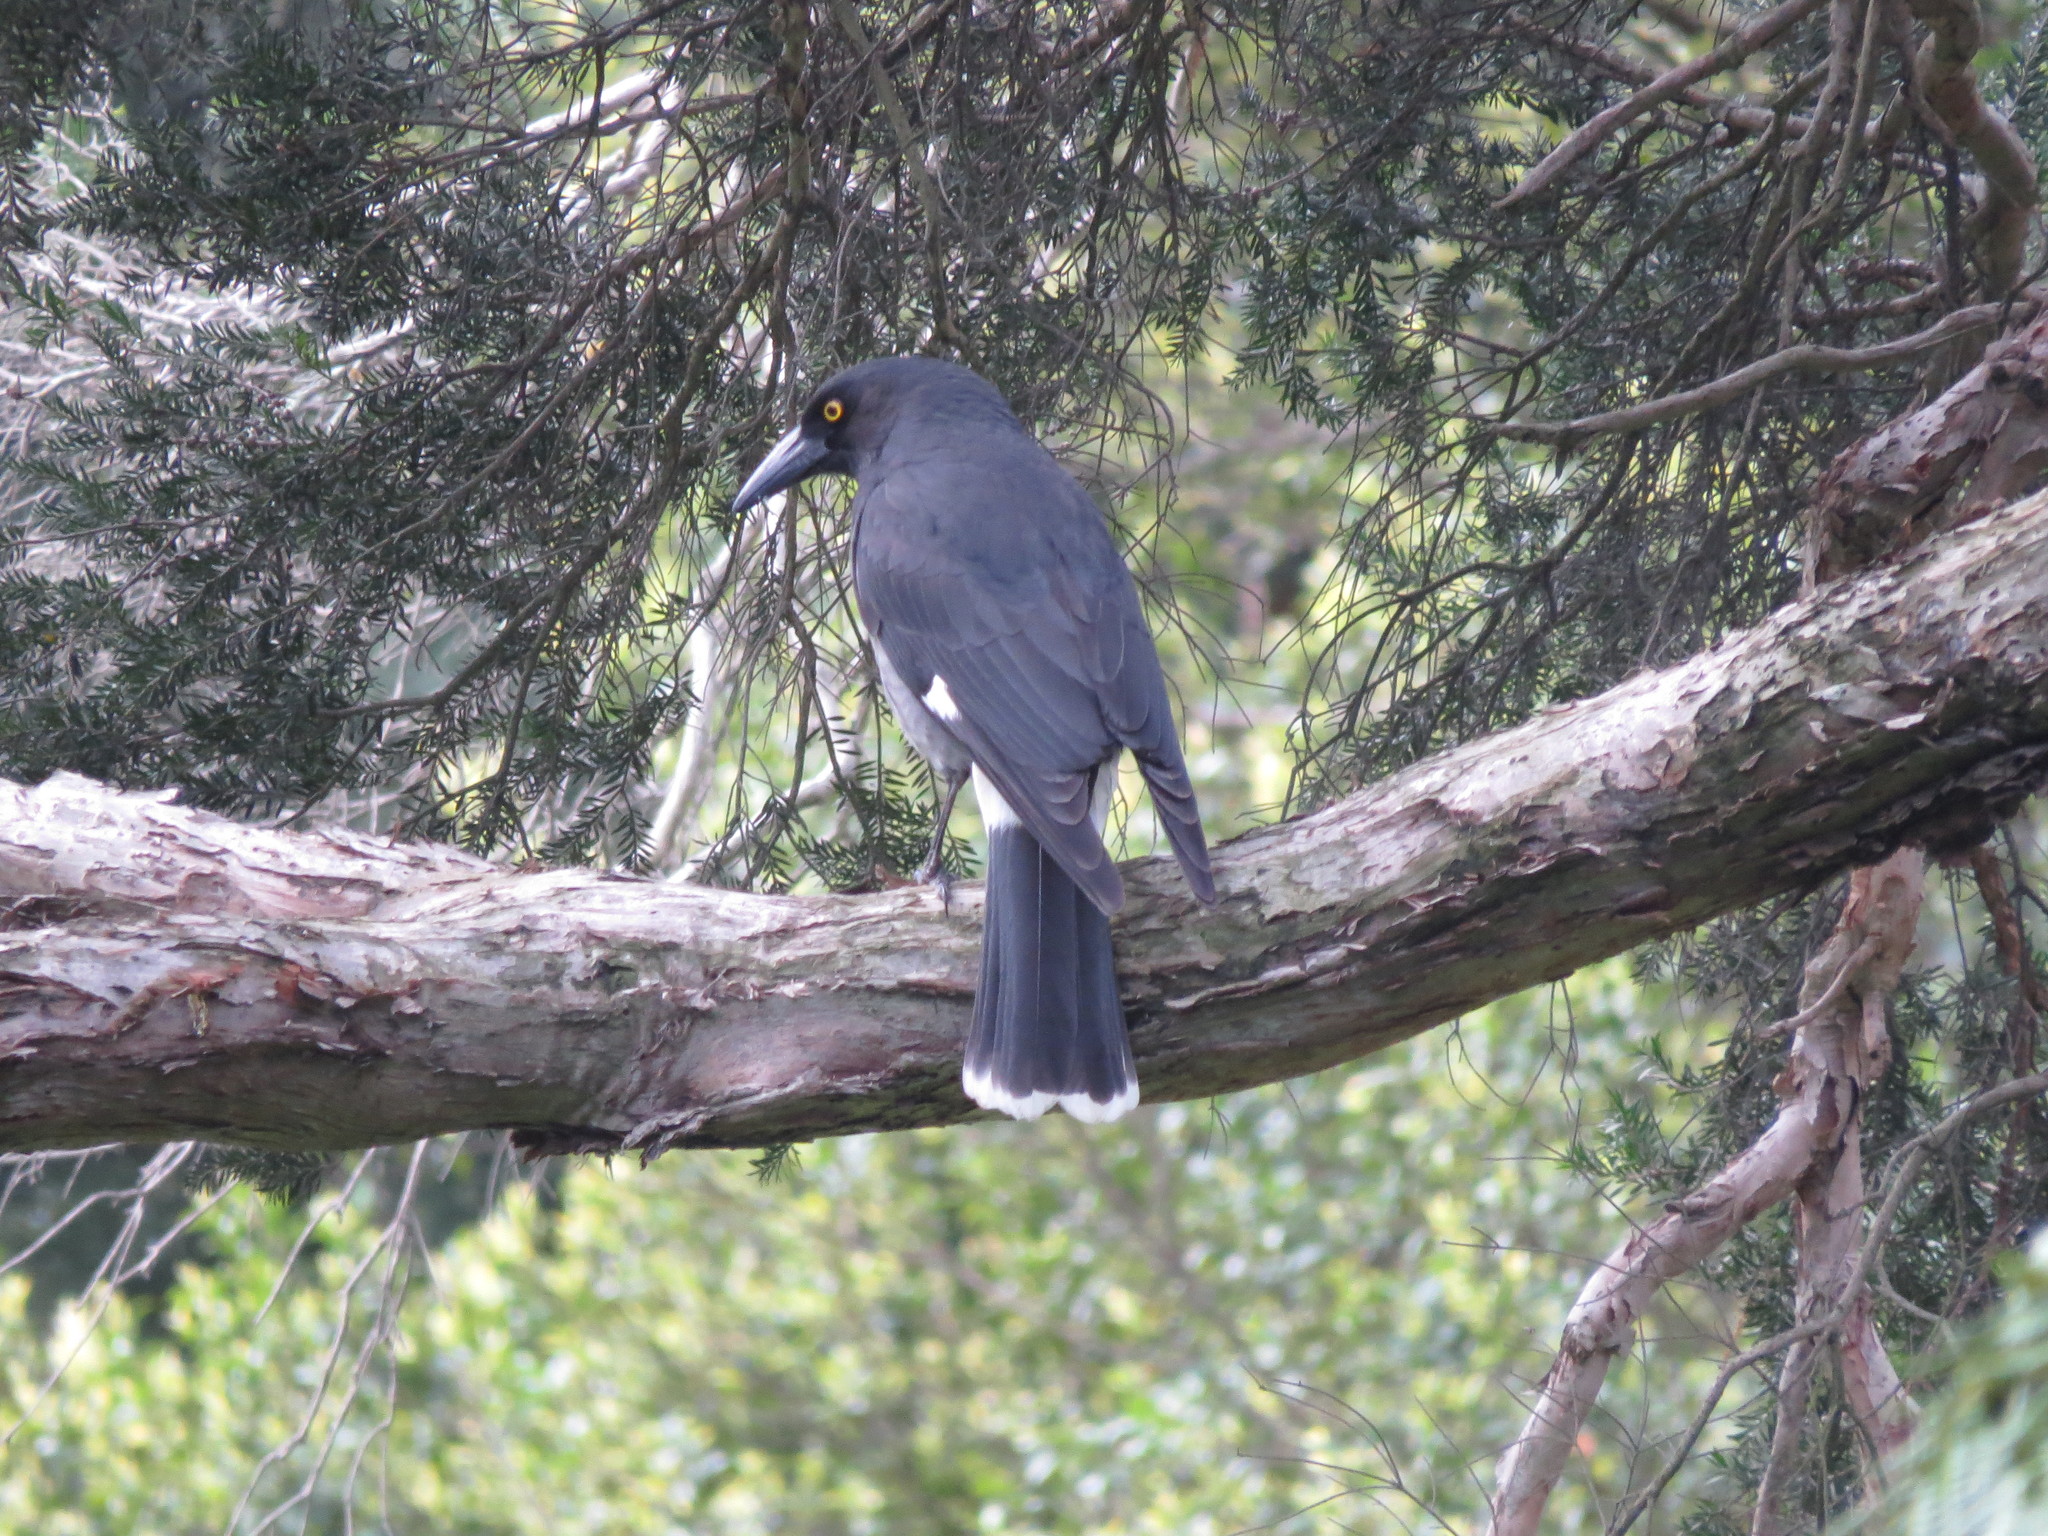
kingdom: Animalia
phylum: Chordata
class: Aves
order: Passeriformes
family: Cracticidae
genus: Strepera
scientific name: Strepera graculina
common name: Pied currawong
